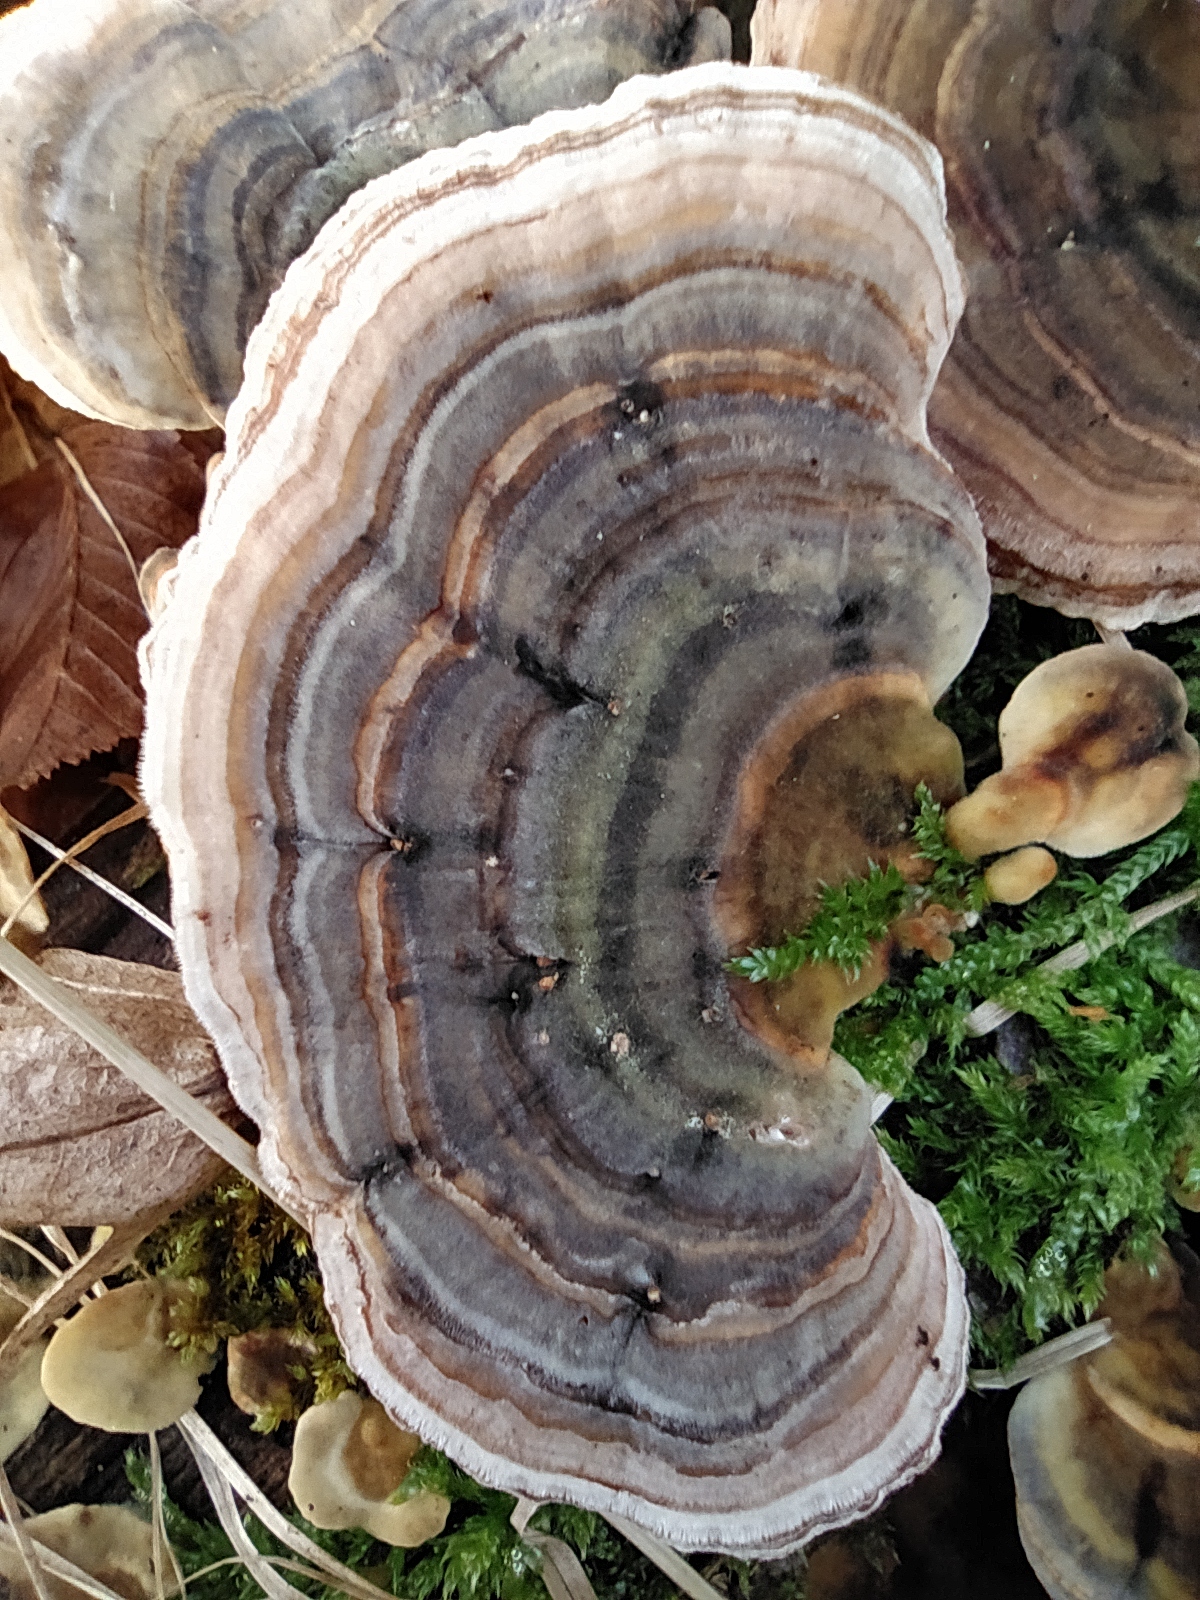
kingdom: Fungi
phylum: Basidiomycota
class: Agaricomycetes
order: Polyporales
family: Polyporaceae
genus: Trametes
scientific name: Trametes versicolor
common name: Turkeytail
